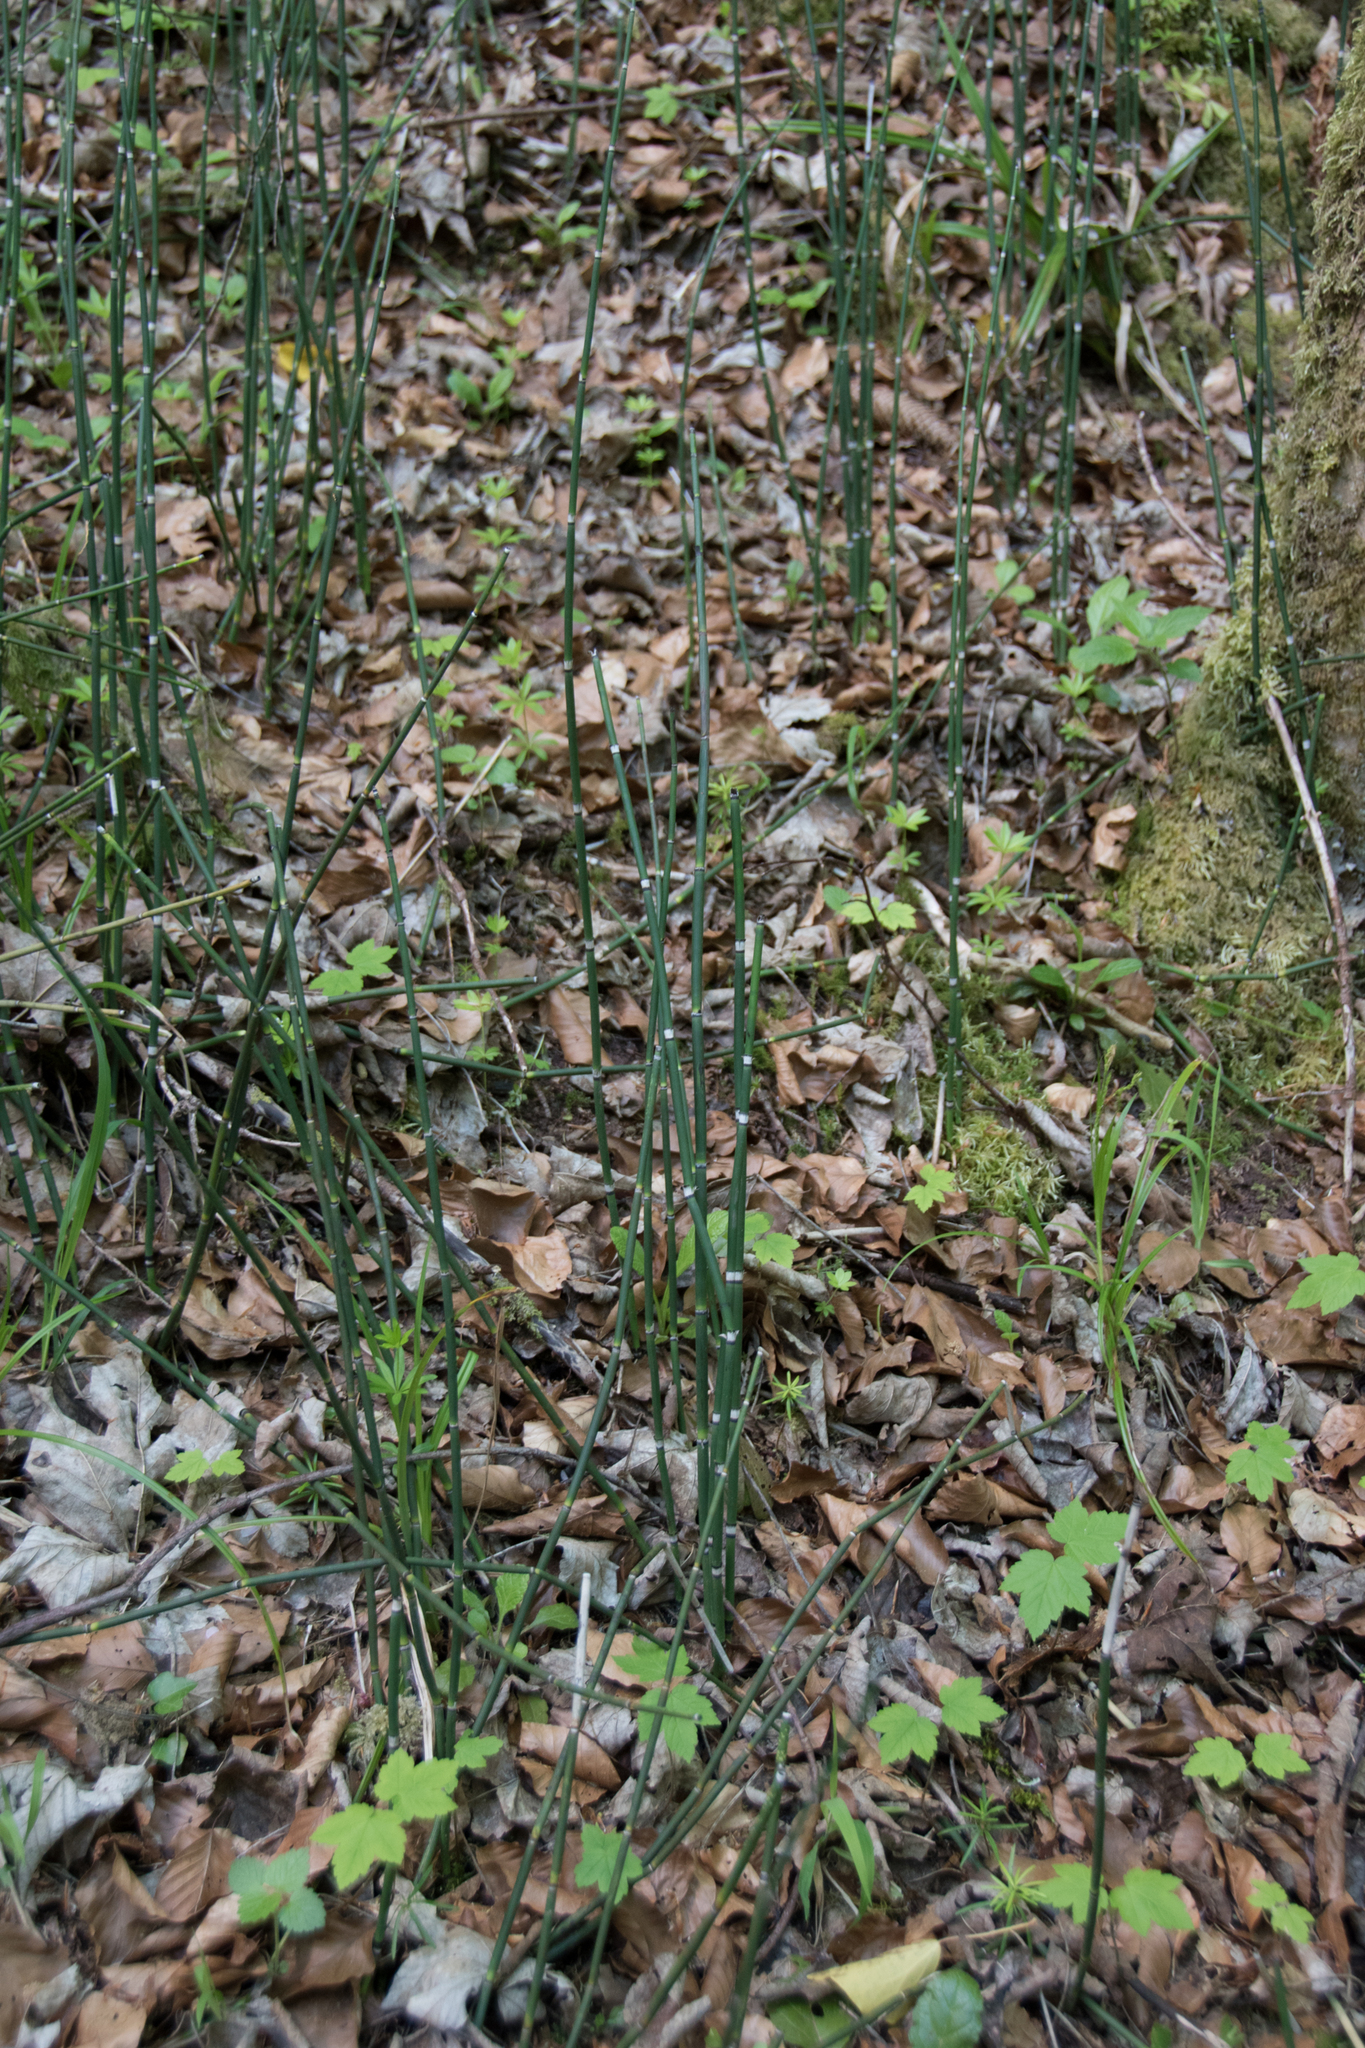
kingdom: Plantae
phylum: Tracheophyta
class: Polypodiopsida
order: Equisetales
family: Equisetaceae
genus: Equisetum
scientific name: Equisetum hyemale
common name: Rough horsetail
